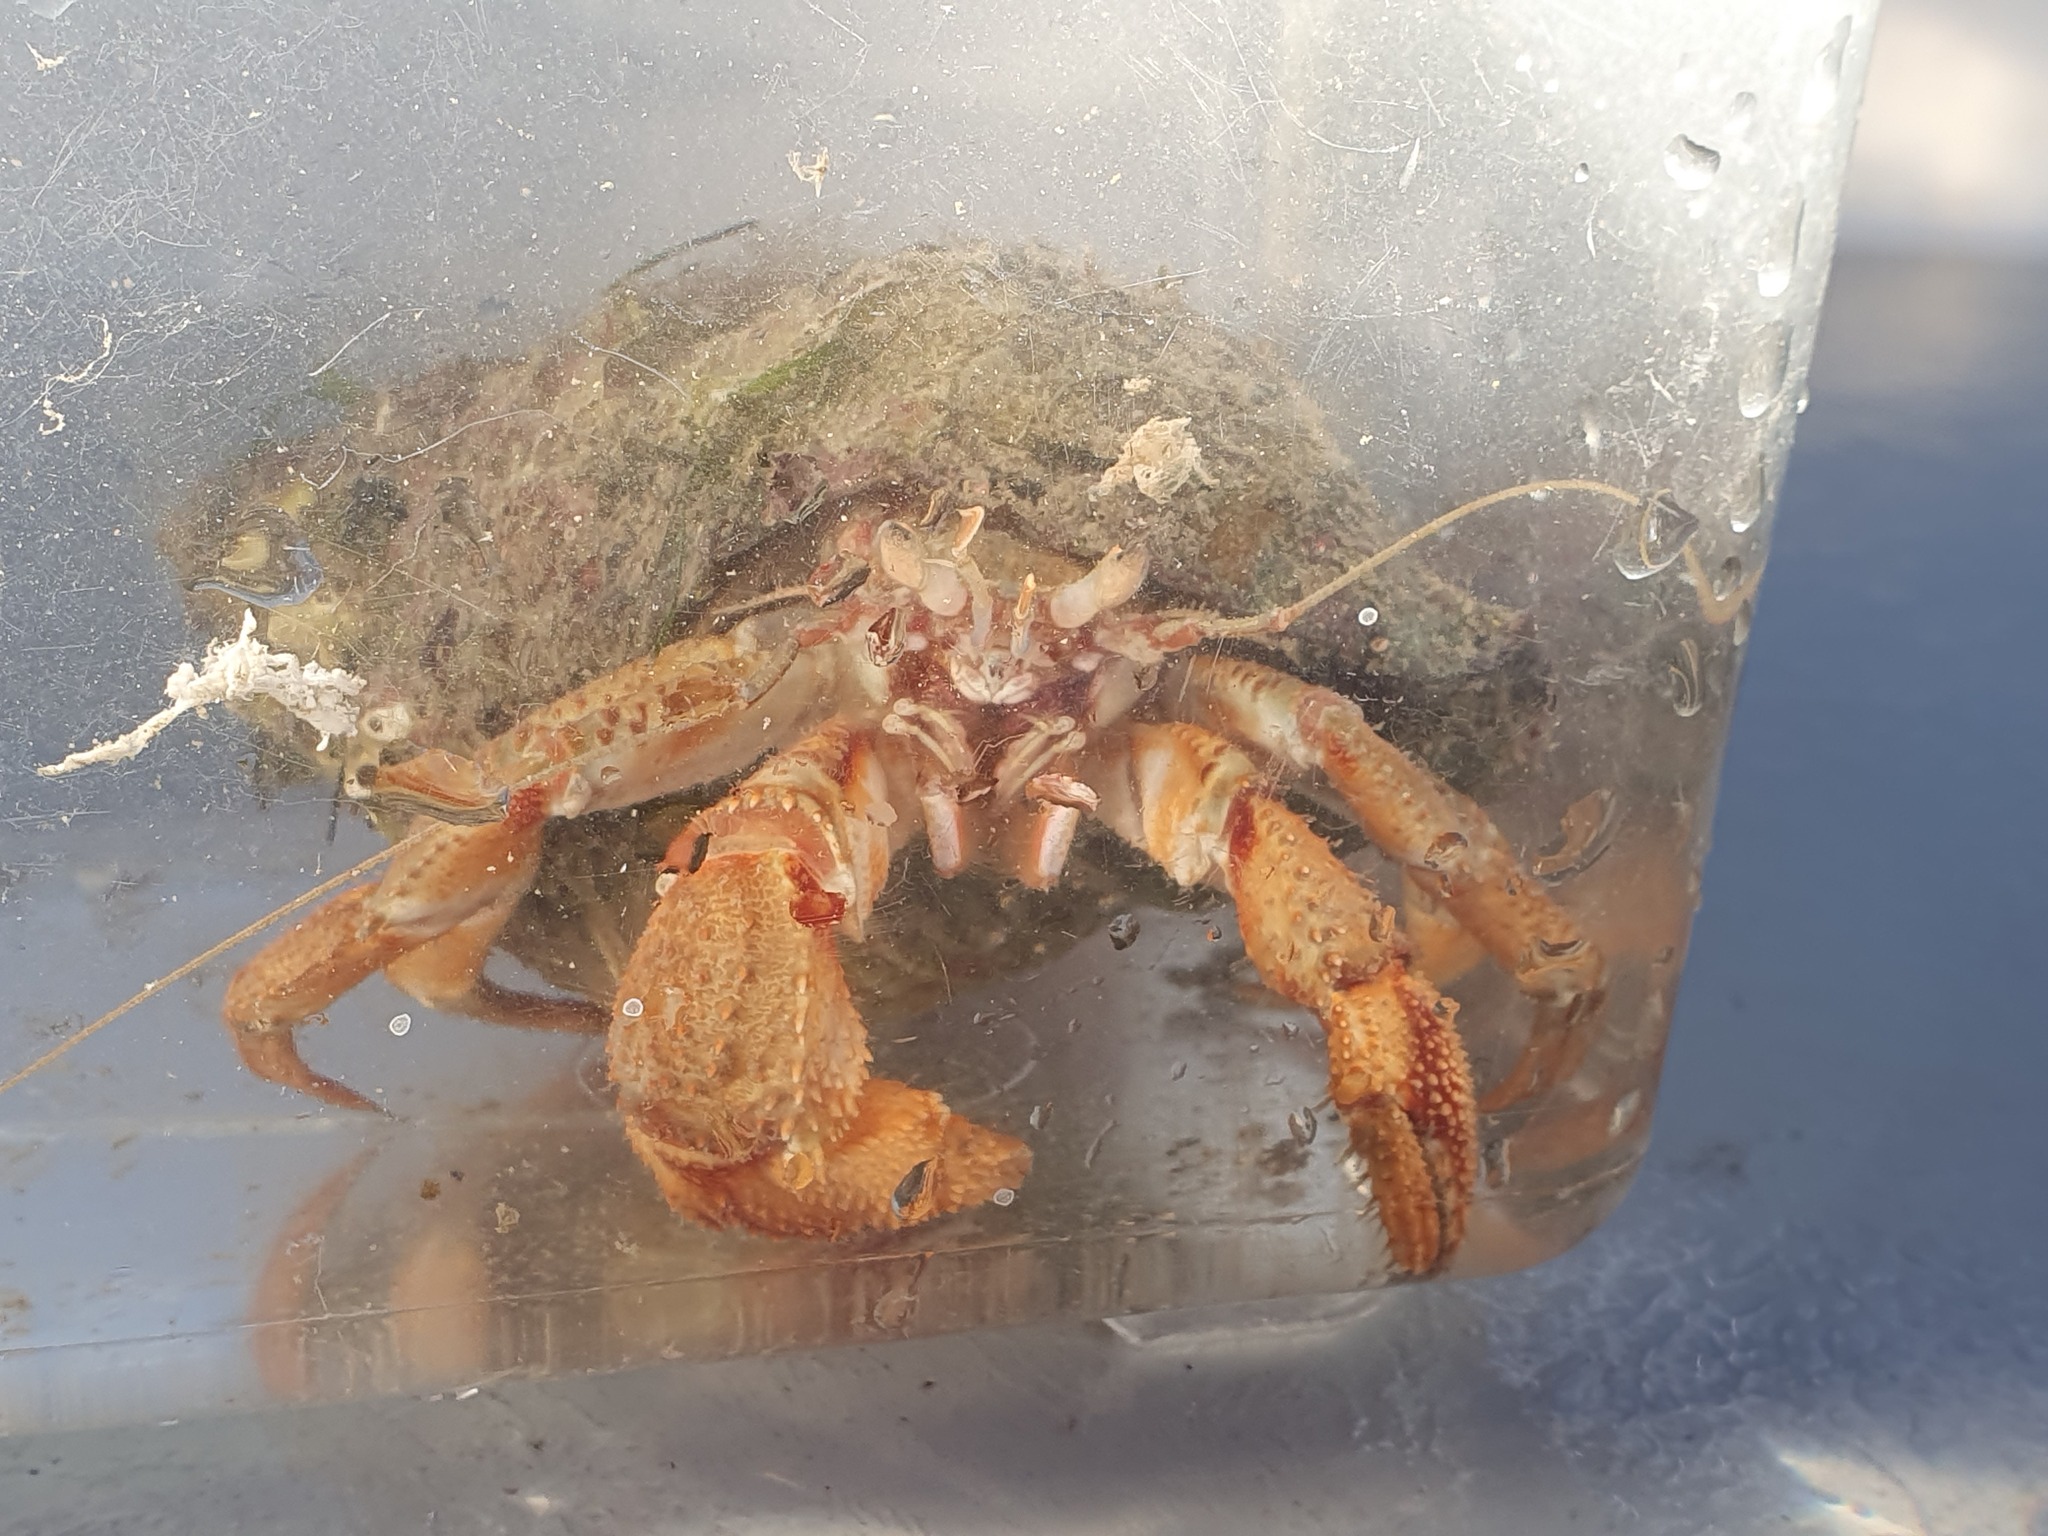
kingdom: Animalia
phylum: Arthropoda
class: Malacostraca
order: Decapoda
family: Paguridae
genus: Pagurus
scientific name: Pagurus bernhardus
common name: Hermit crab
